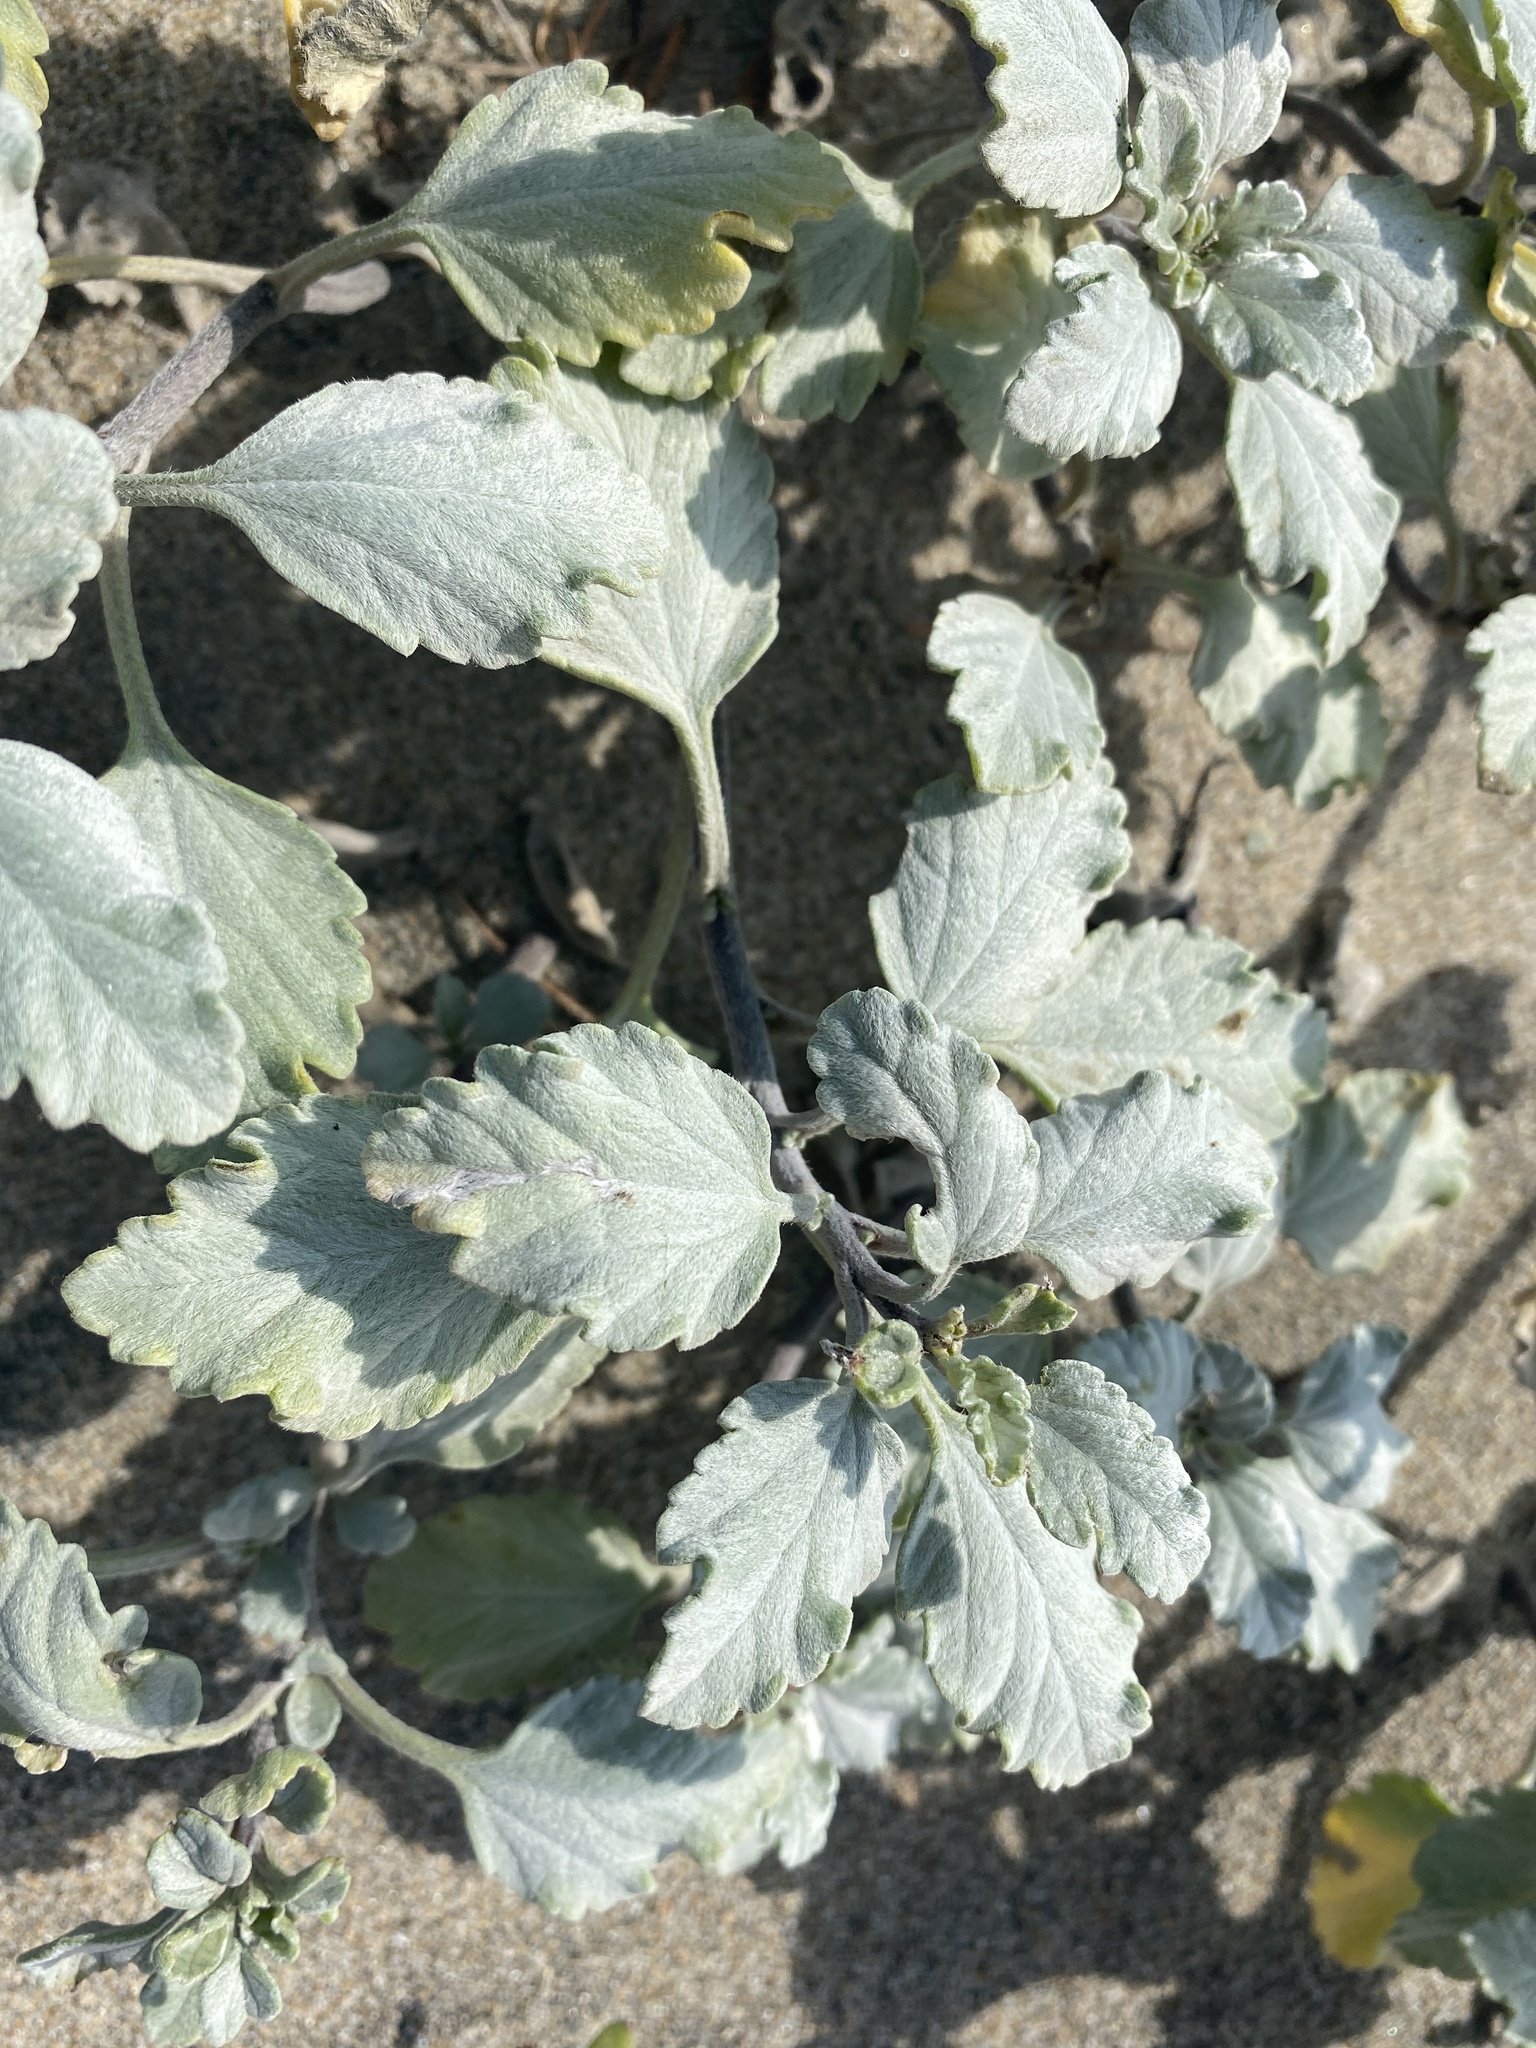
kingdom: Plantae
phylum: Tracheophyta
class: Magnoliopsida
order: Asterales
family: Asteraceae
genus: Ambrosia
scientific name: Ambrosia chamissonis
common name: Beachbur
